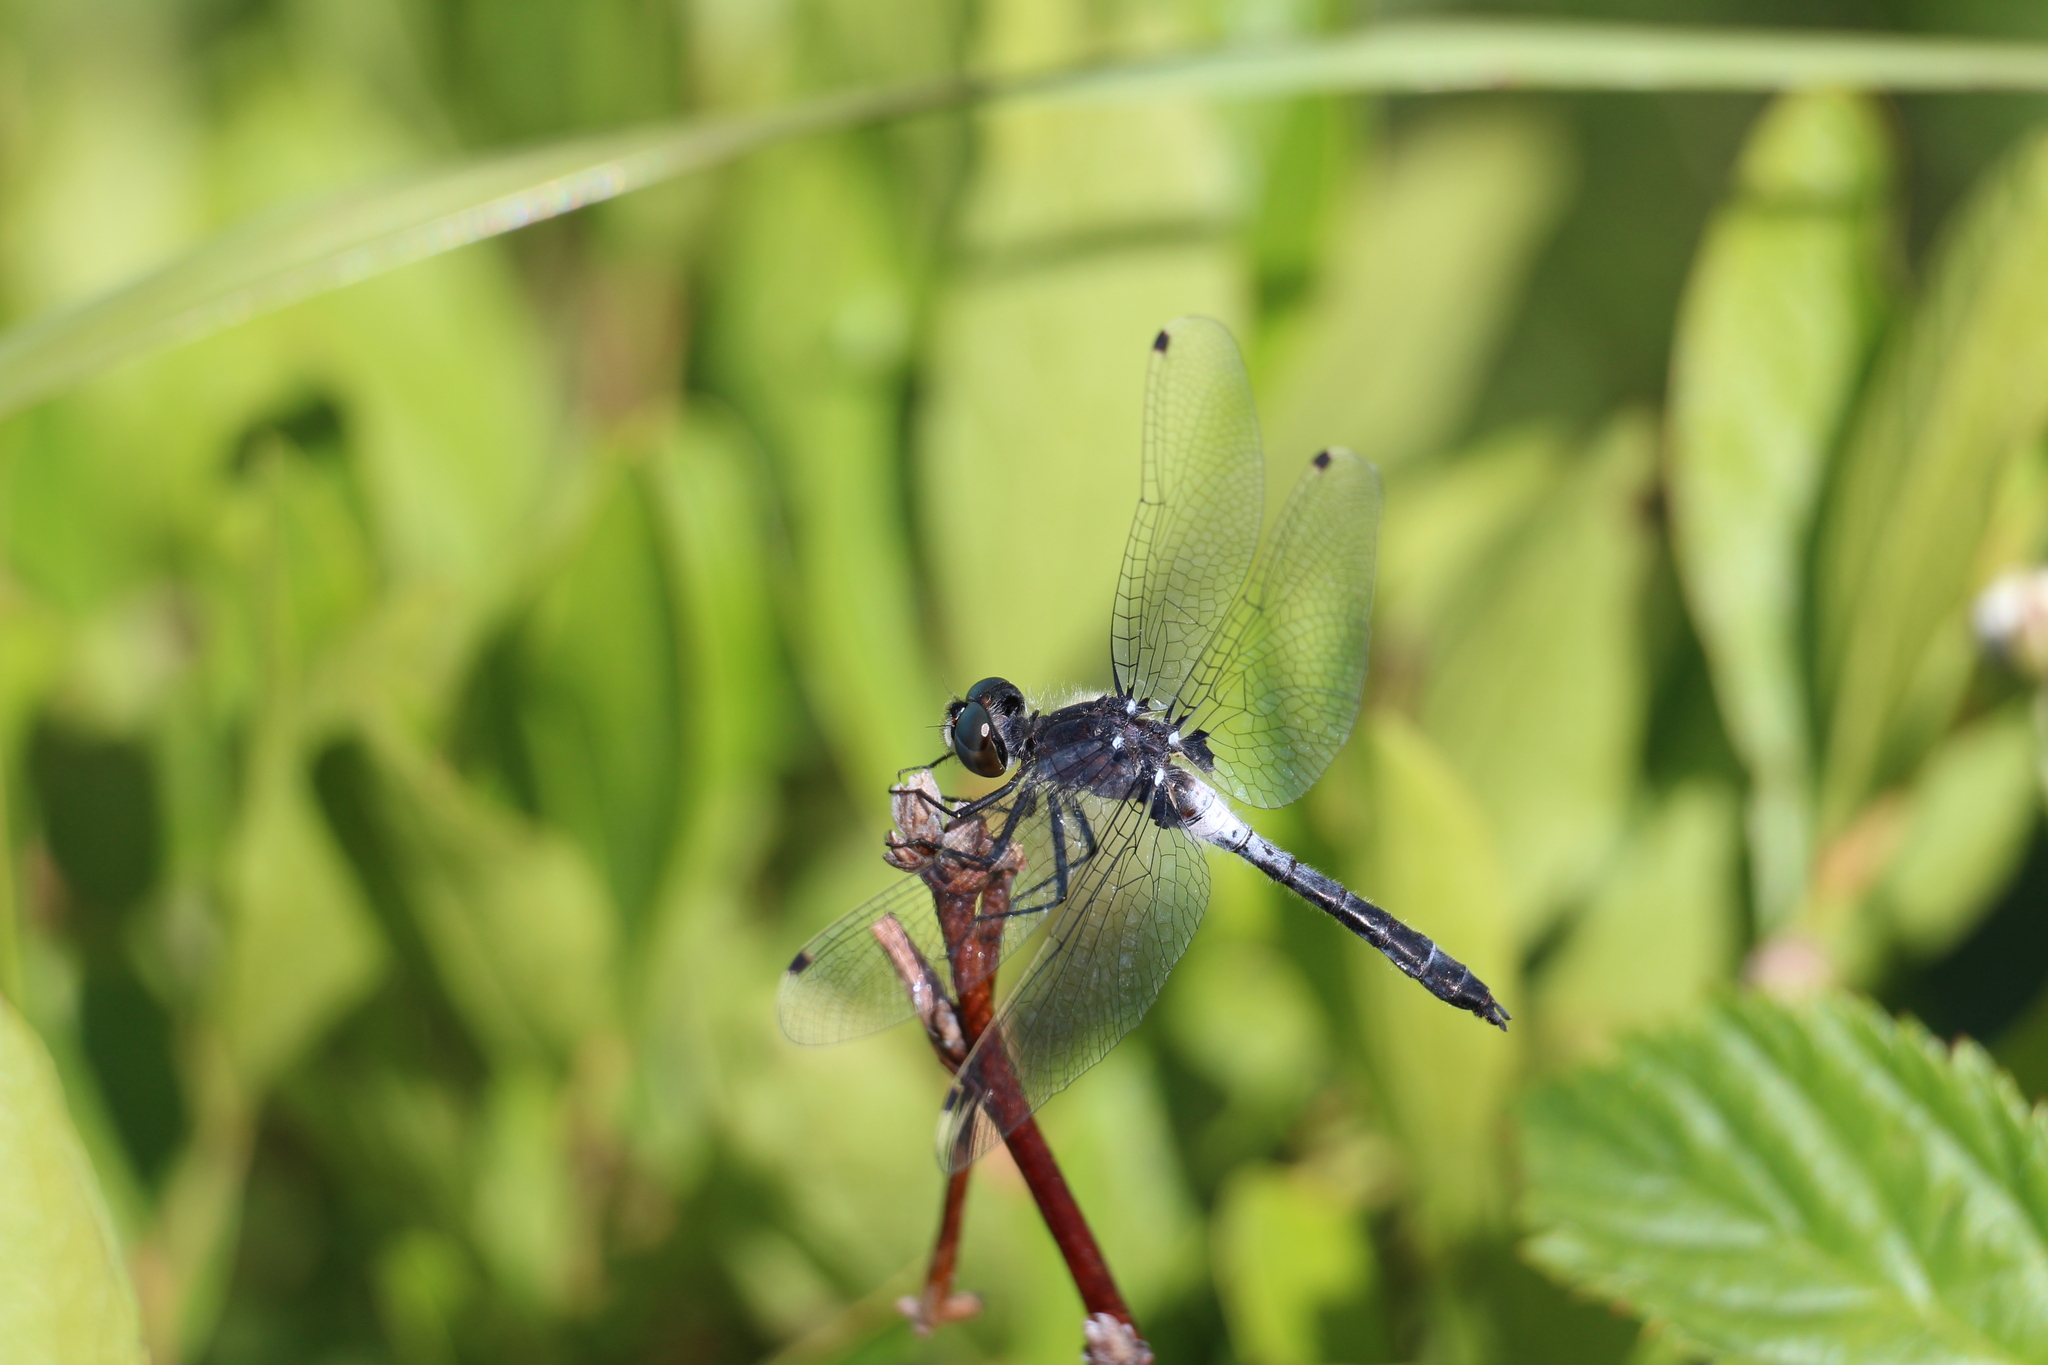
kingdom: Animalia
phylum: Arthropoda
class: Insecta
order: Odonata
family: Libellulidae
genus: Leucorrhinia
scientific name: Leucorrhinia frigida
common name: Frosted whiteface
